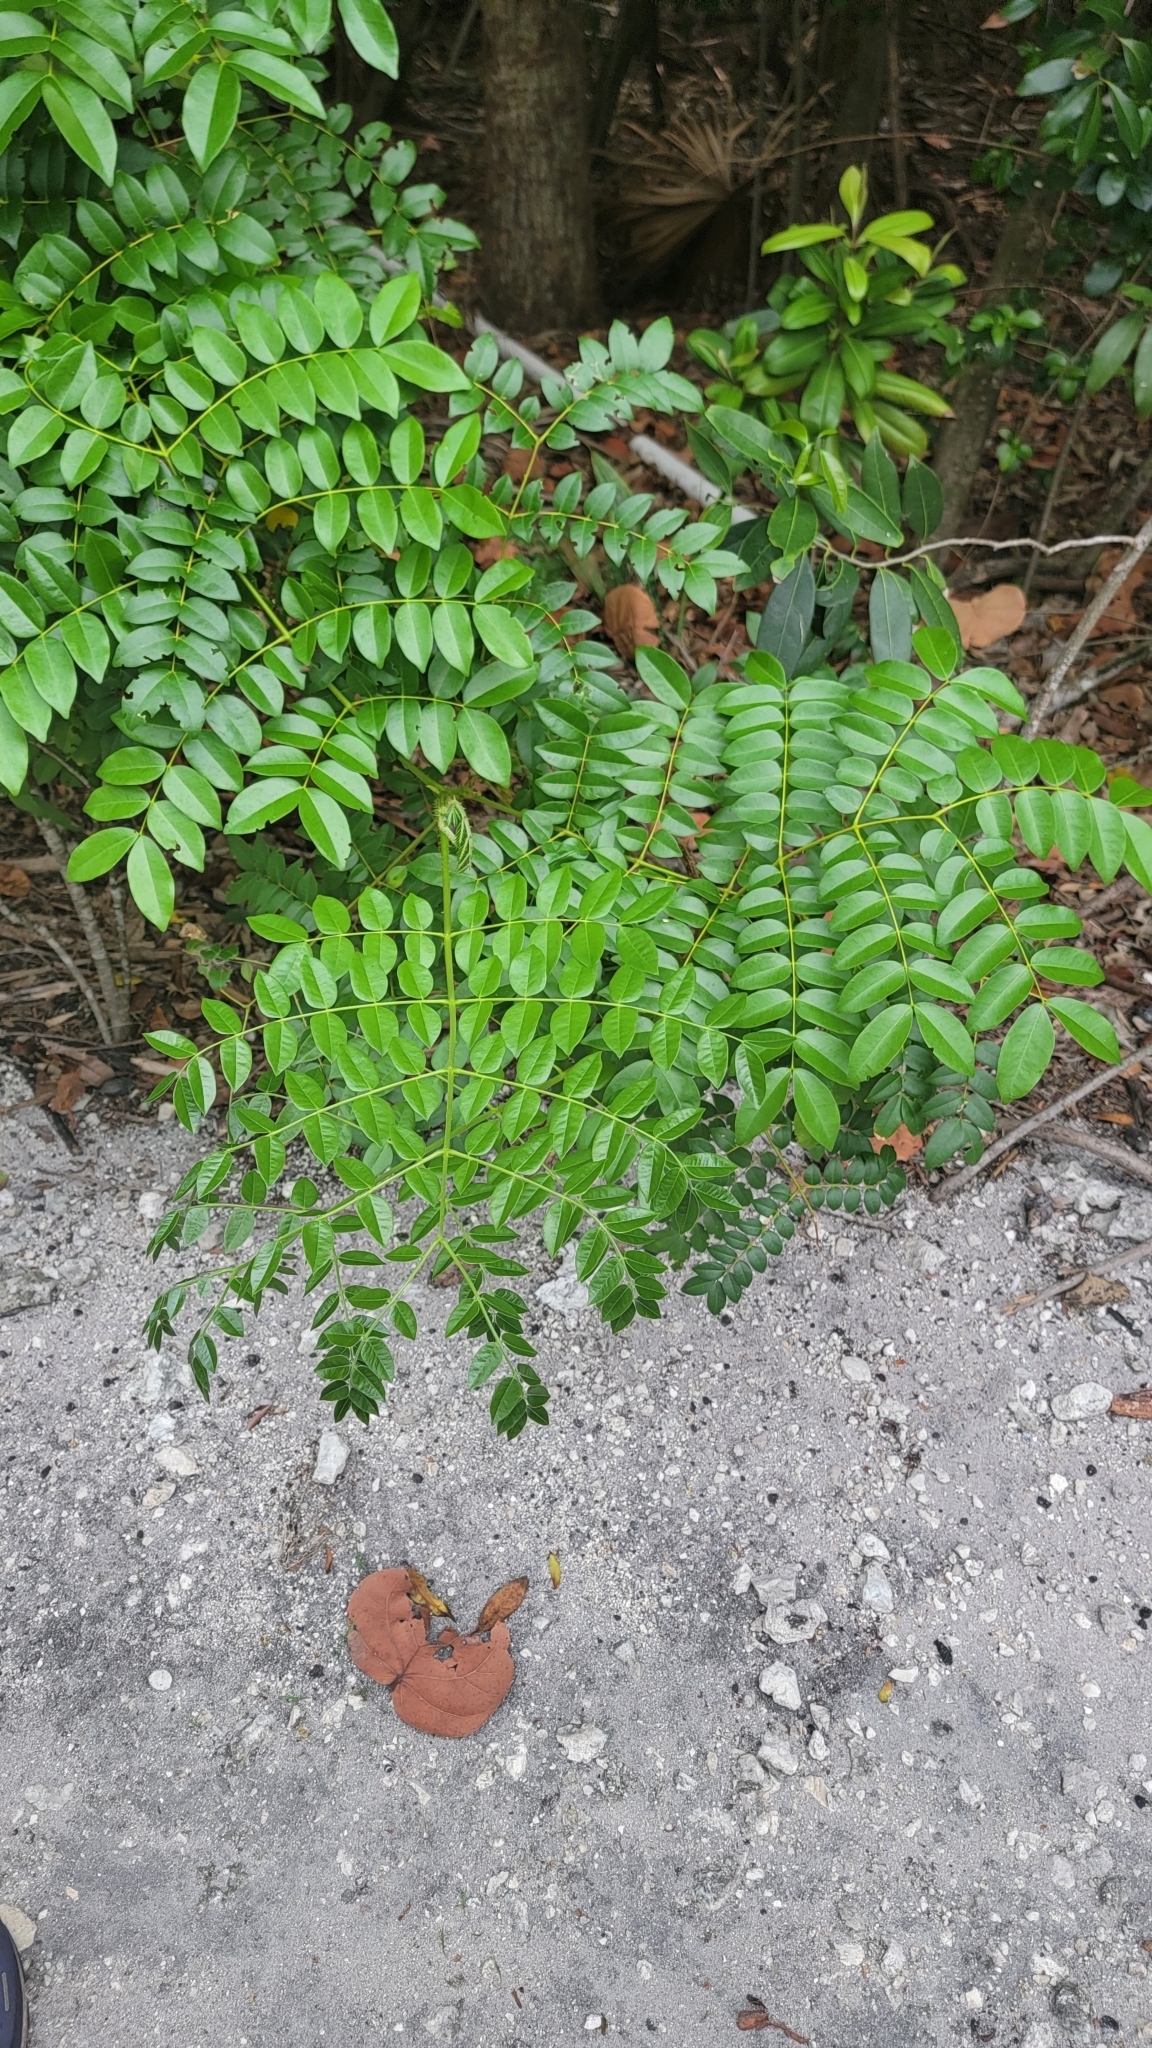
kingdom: Plantae
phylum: Tracheophyta
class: Magnoliopsida
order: Fabales
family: Fabaceae
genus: Guilandina
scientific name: Guilandina bonduc
